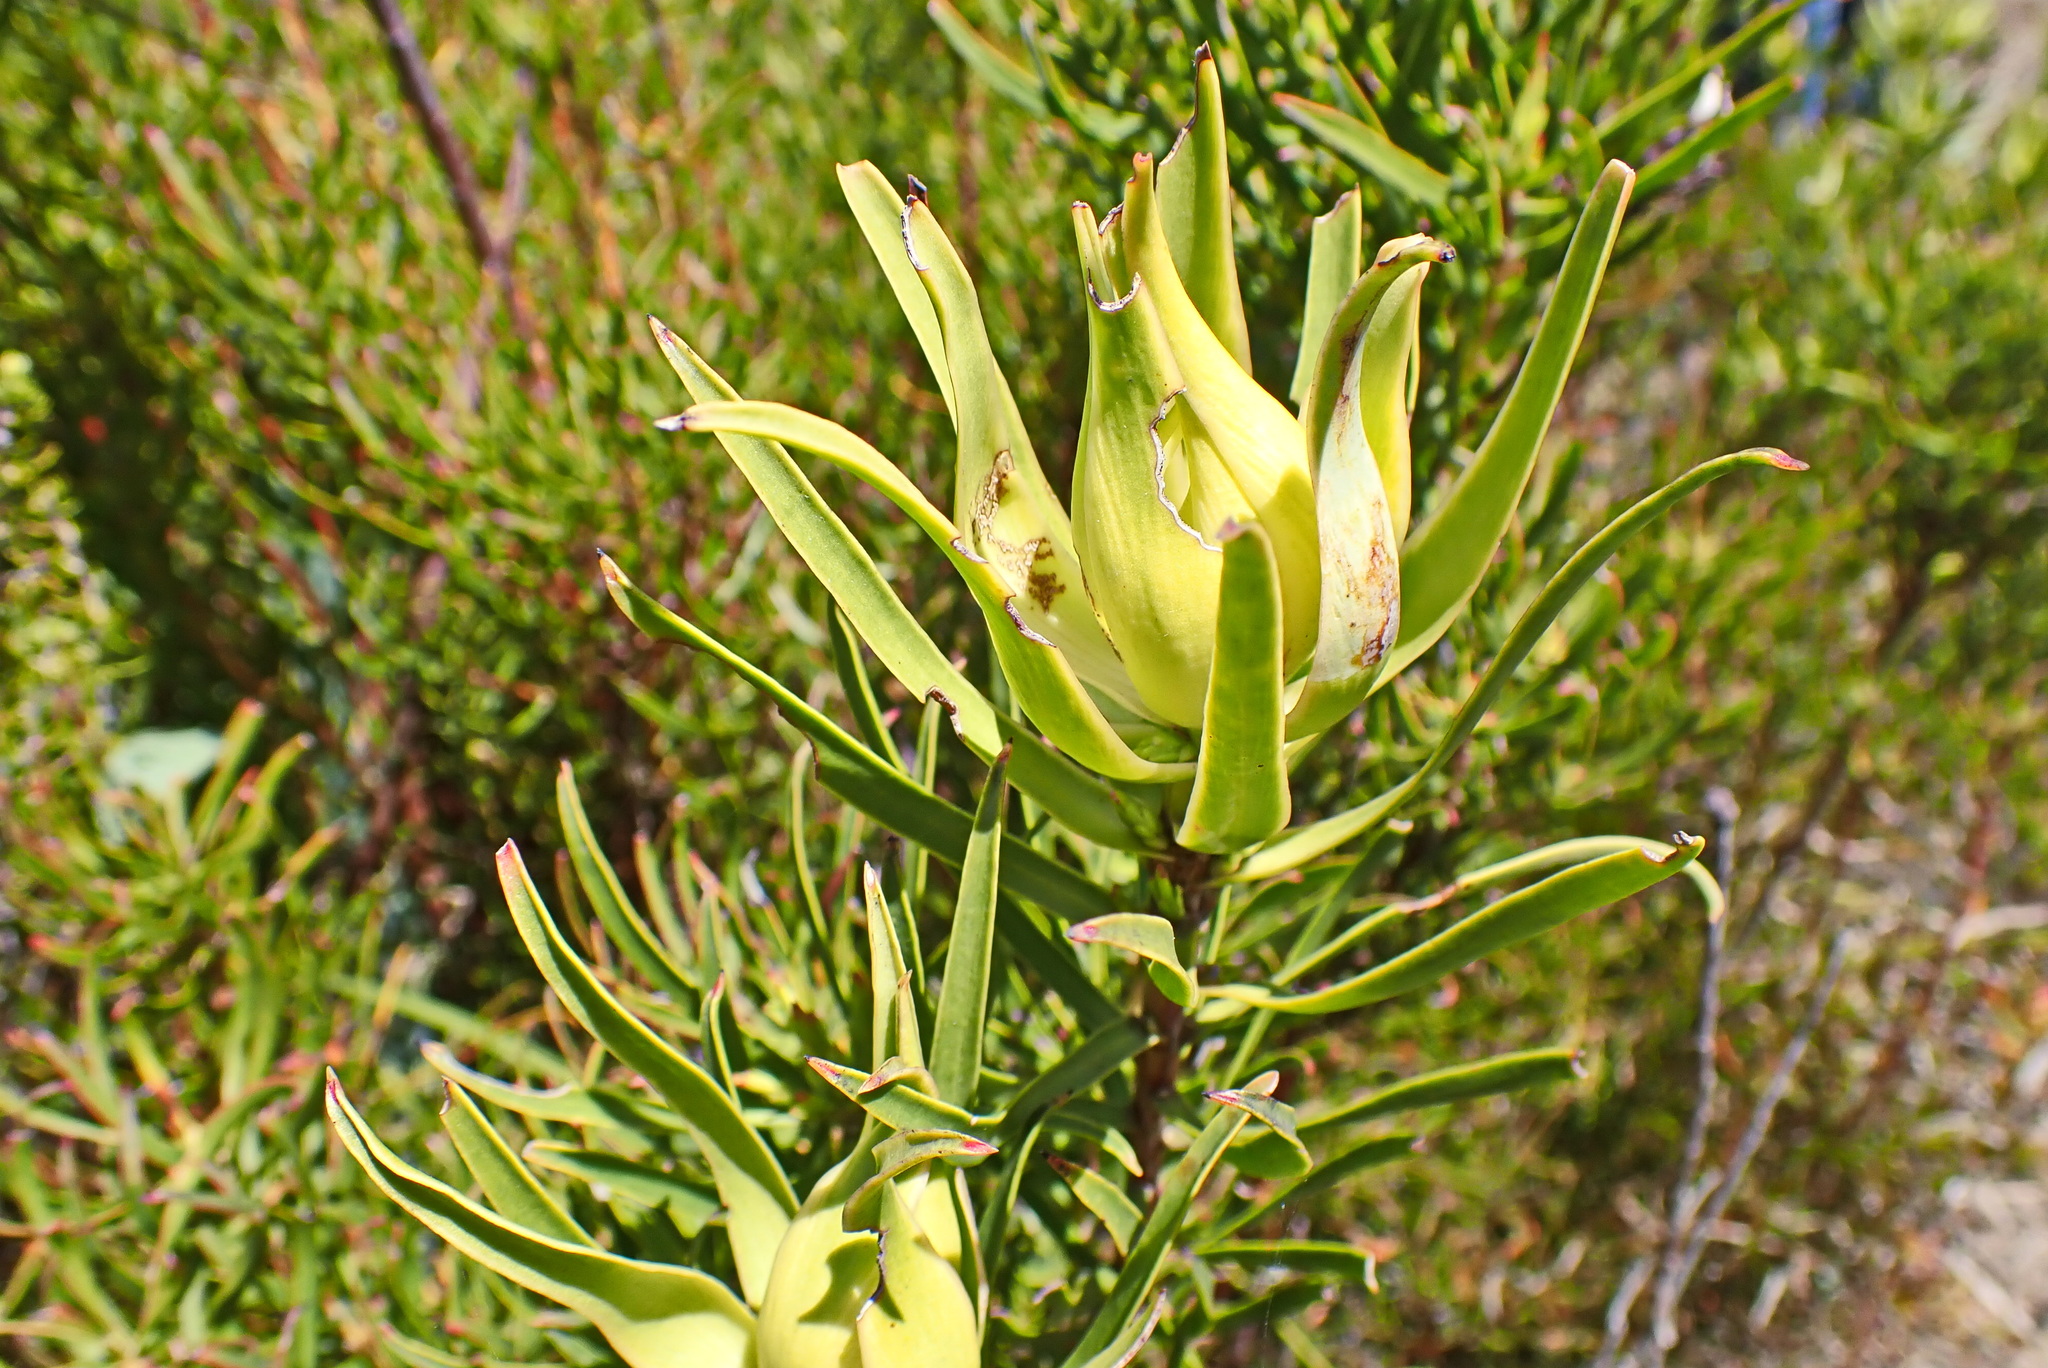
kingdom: Plantae
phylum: Tracheophyta
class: Magnoliopsida
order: Proteales
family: Proteaceae
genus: Leucadendron
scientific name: Leucadendron spissifolium
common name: Spear-leaf conebush
